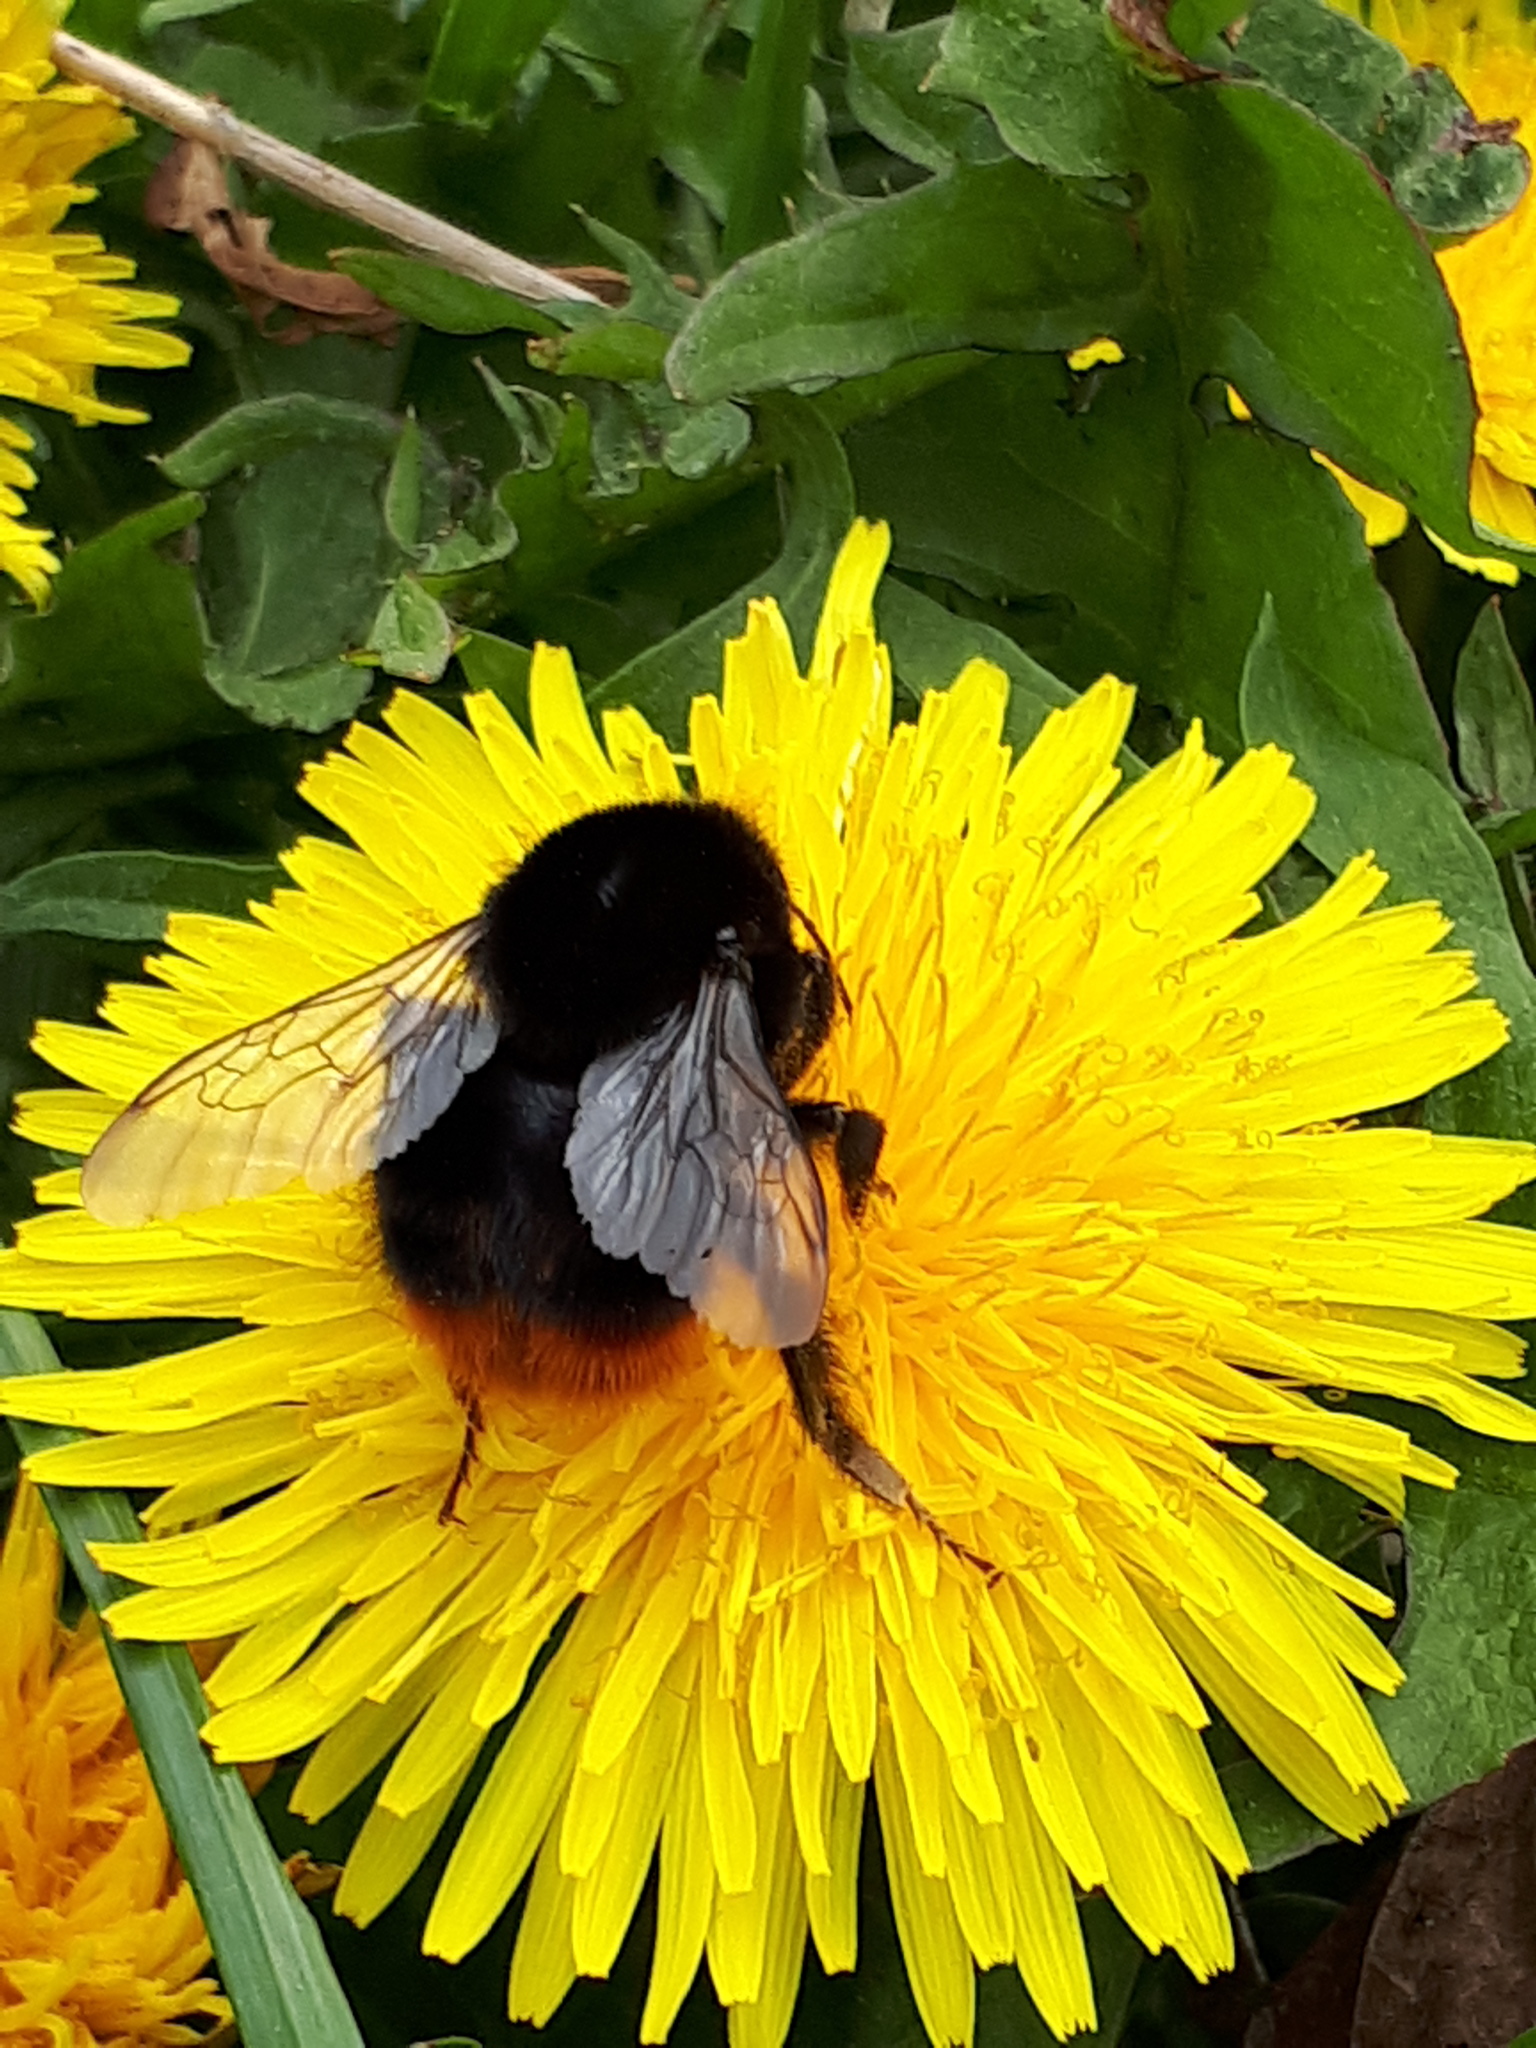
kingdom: Animalia
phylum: Arthropoda
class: Insecta
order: Hymenoptera
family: Apidae
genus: Bombus
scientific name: Bombus lapidarius
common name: Large red-tailed humble-bee
